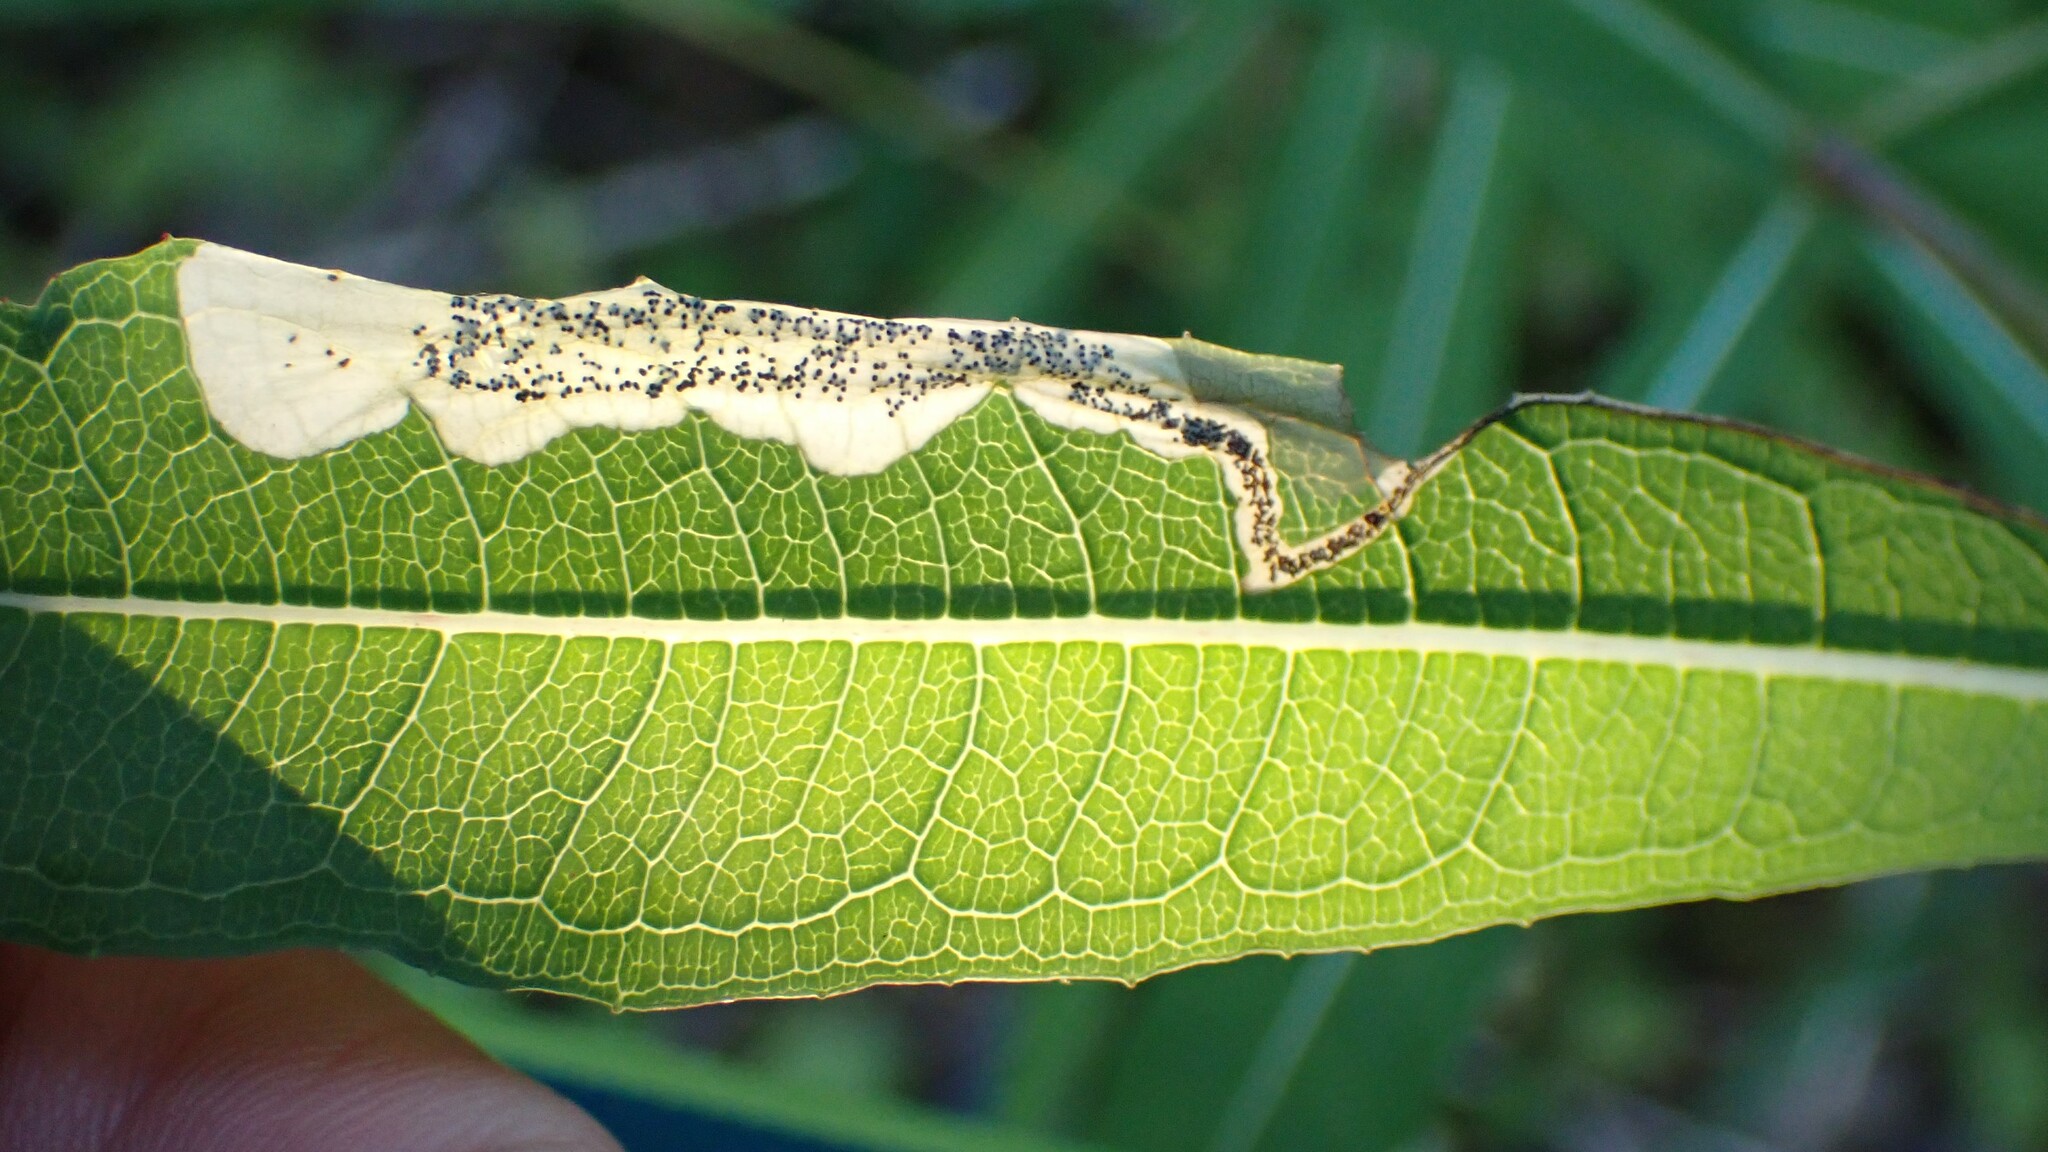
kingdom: Animalia
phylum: Arthropoda
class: Insecta
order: Lepidoptera
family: Momphidae
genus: Mompha
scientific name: Mompha raschkiella
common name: Little cosmet
